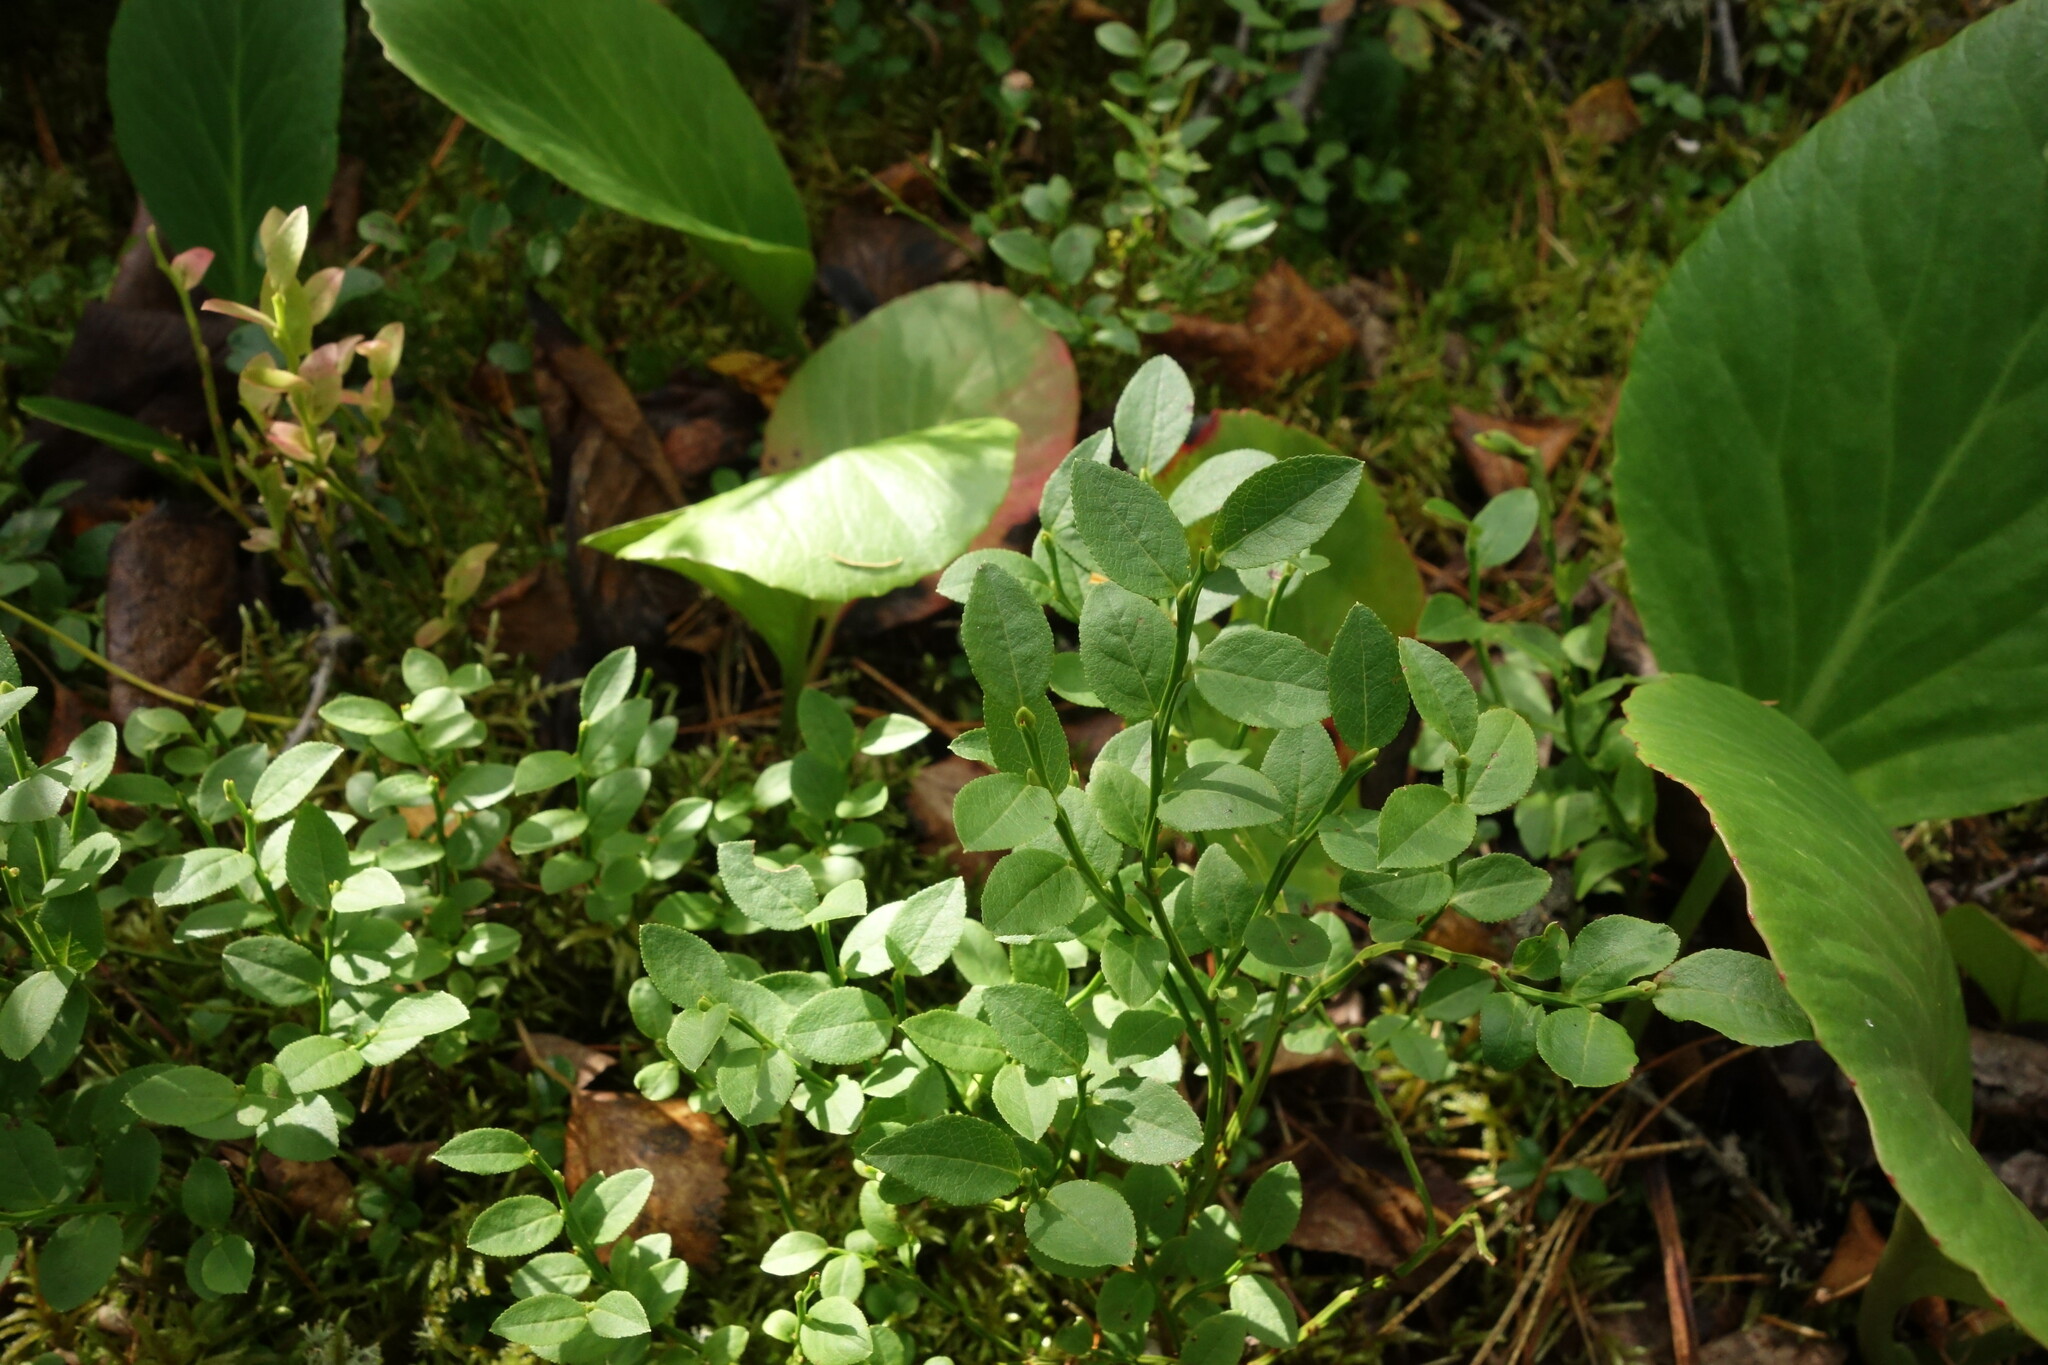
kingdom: Plantae
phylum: Tracheophyta
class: Magnoliopsida
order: Ericales
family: Ericaceae
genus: Vaccinium
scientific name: Vaccinium myrtillus
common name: Bilberry
